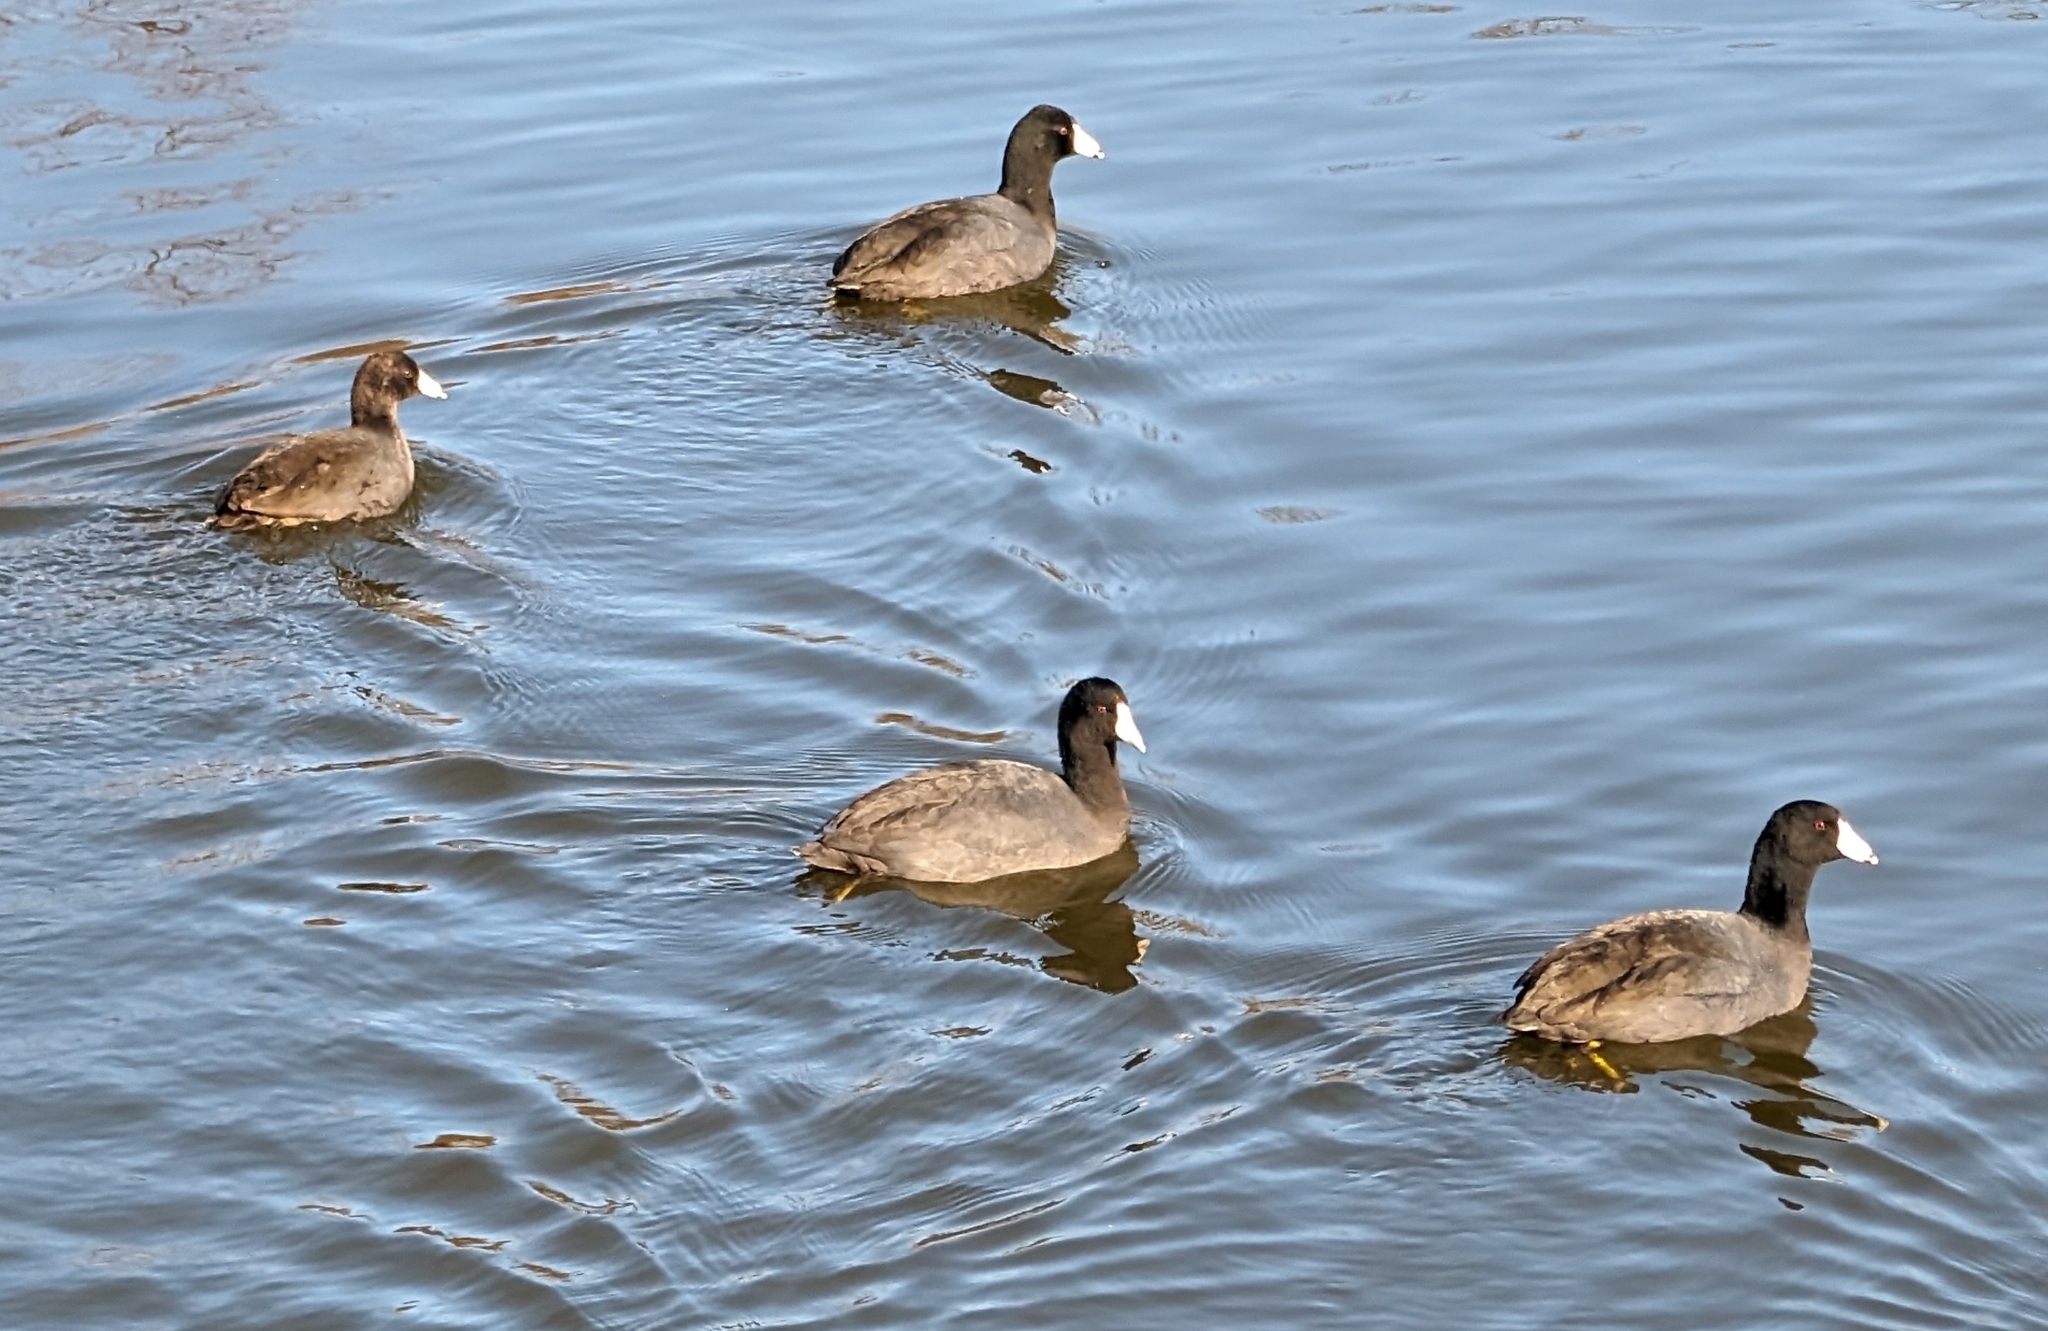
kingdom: Animalia
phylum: Chordata
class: Aves
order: Gruiformes
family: Rallidae
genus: Fulica
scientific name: Fulica americana
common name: American coot
